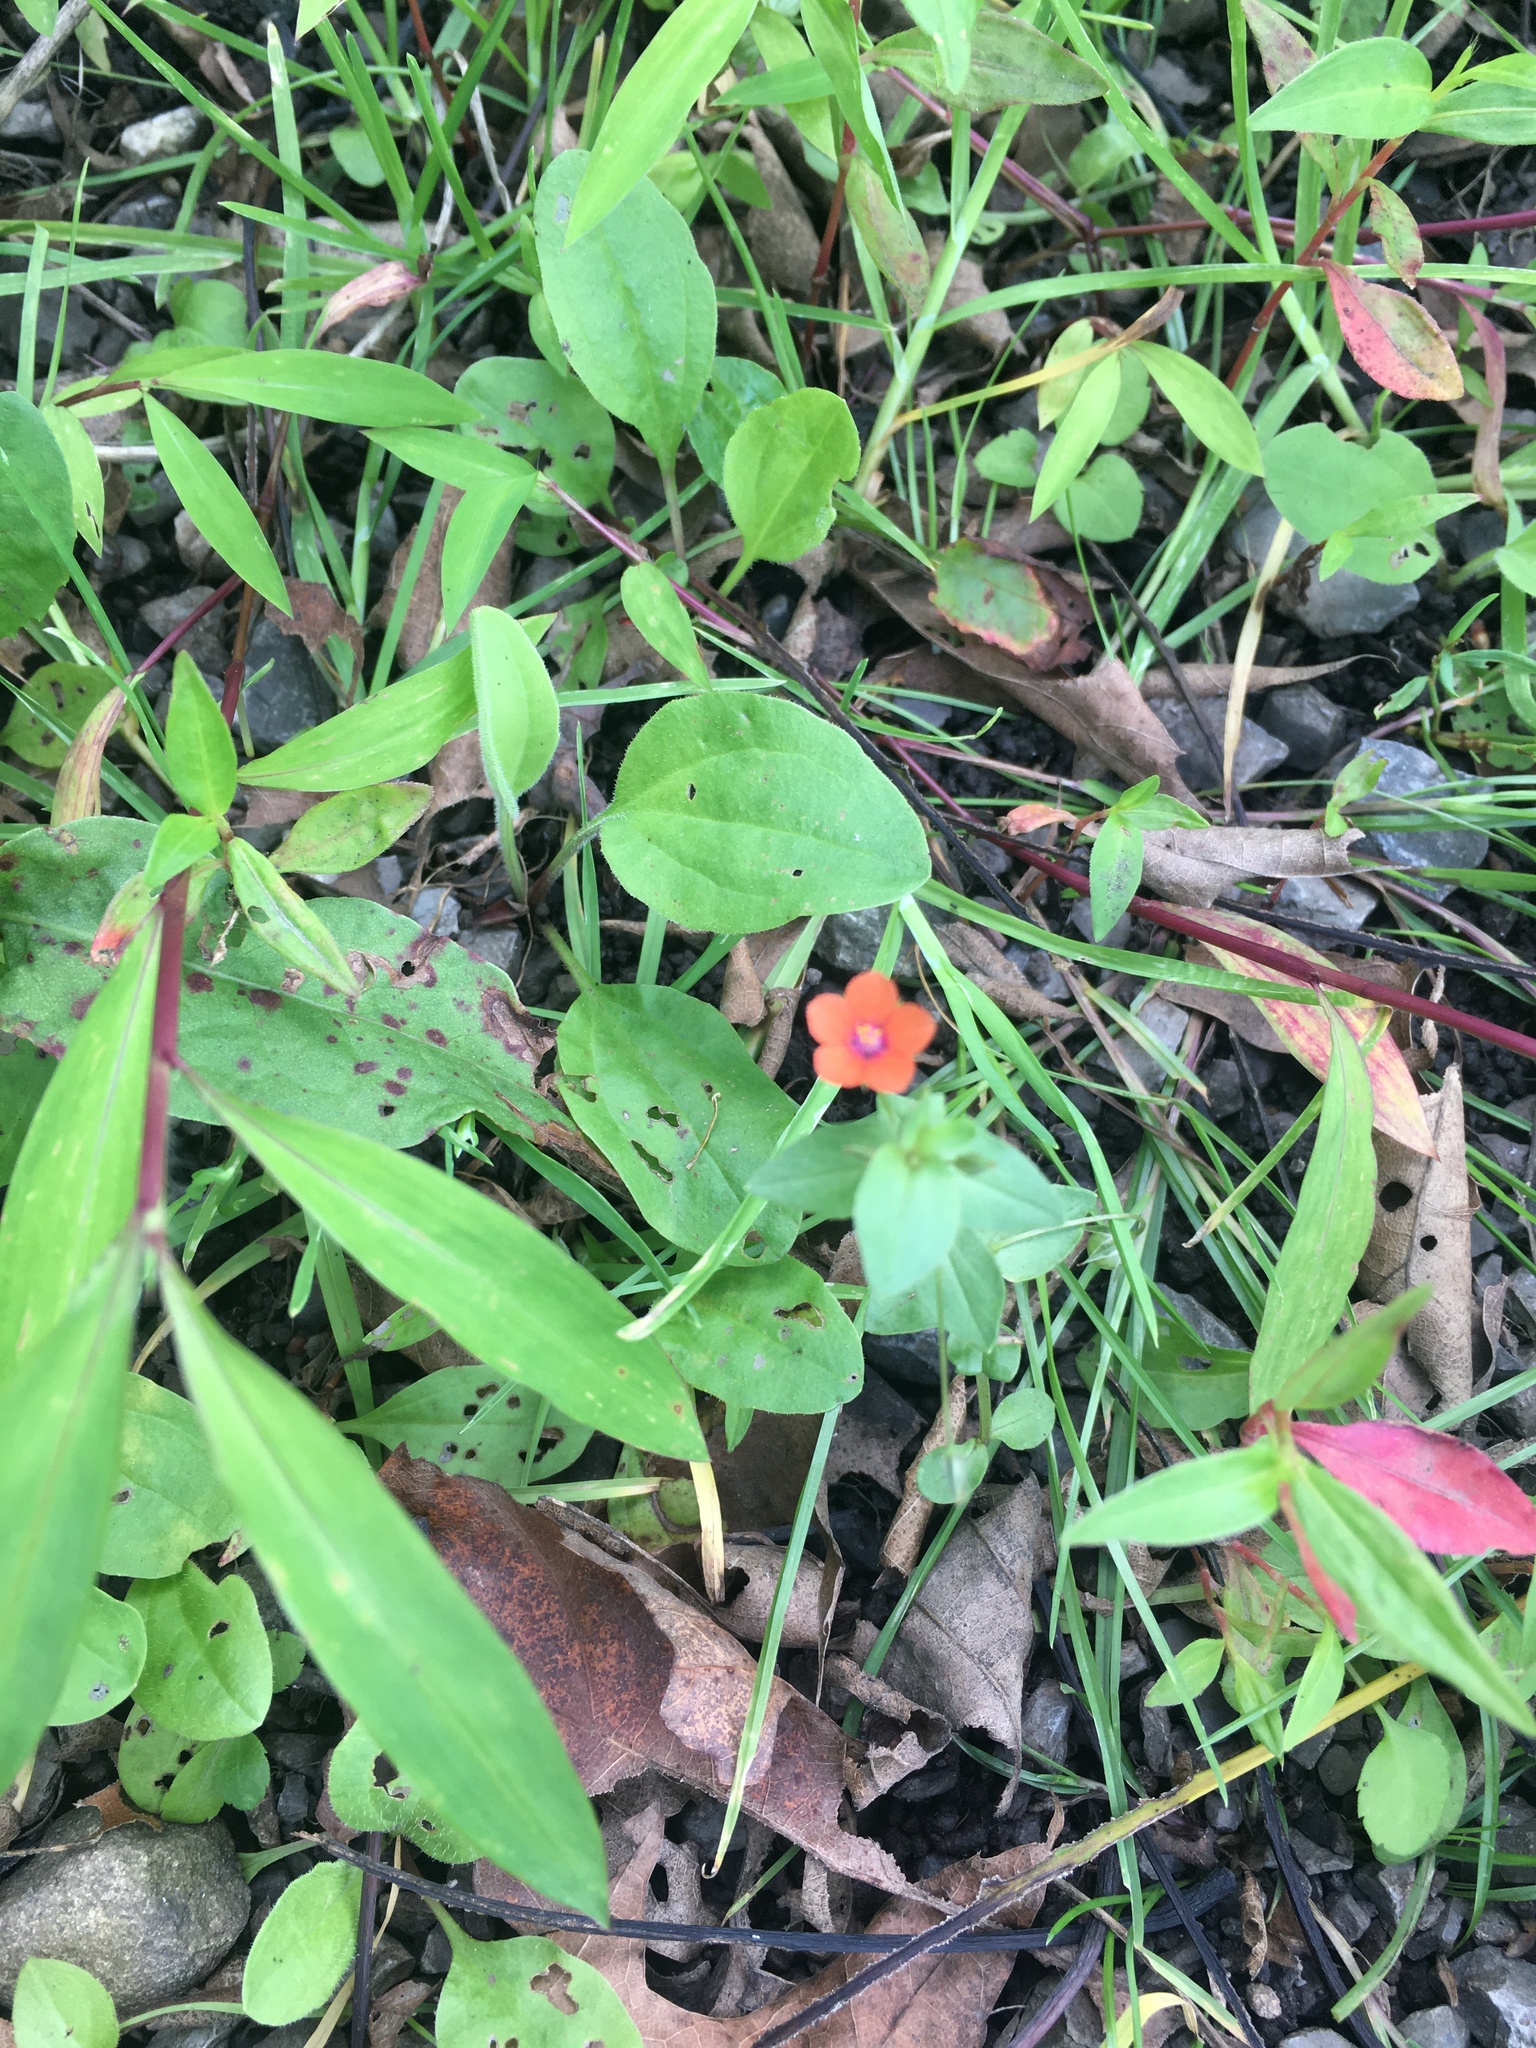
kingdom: Plantae
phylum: Tracheophyta
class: Magnoliopsida
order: Ericales
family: Primulaceae
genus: Lysimachia
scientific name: Lysimachia arvensis
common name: Scarlet pimpernel
